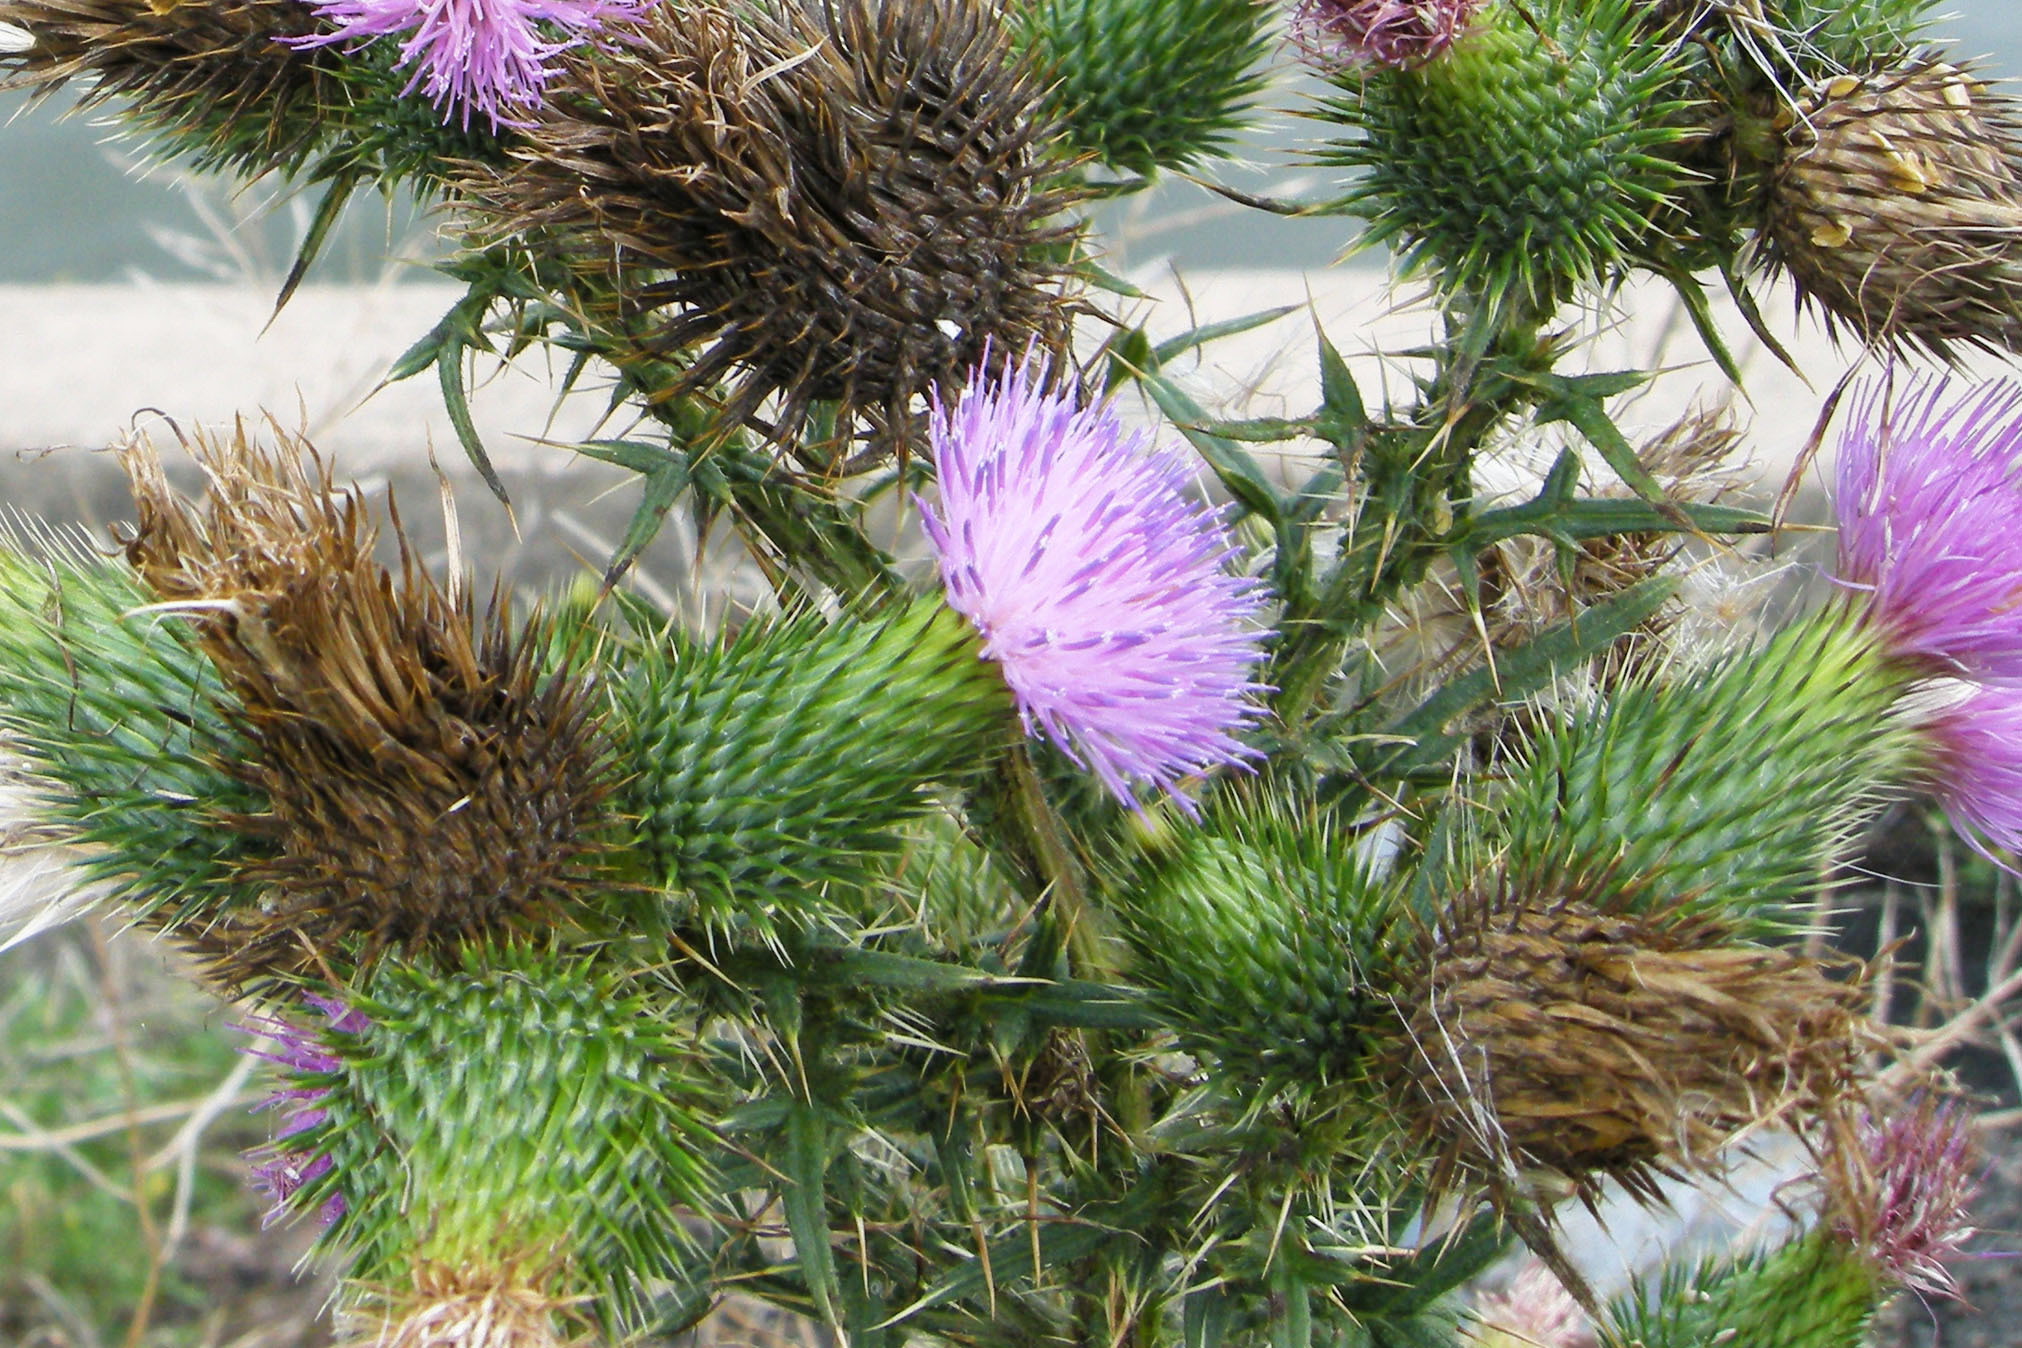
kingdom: Plantae
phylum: Tracheophyta
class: Magnoliopsida
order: Asterales
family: Asteraceae
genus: Cirsium
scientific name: Cirsium vulgare
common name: Bull thistle
